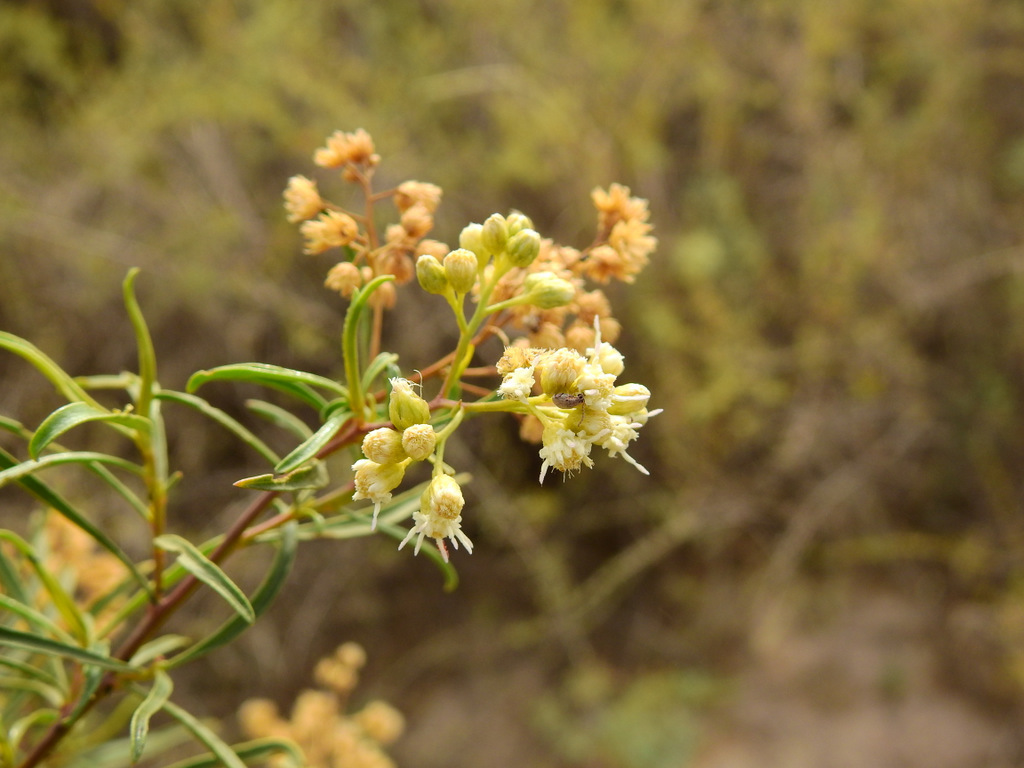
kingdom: Plantae
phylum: Tracheophyta
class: Magnoliopsida
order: Asterales
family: Asteraceae
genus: Baccharis
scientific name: Baccharis salicifolia
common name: Sticky baccharis
